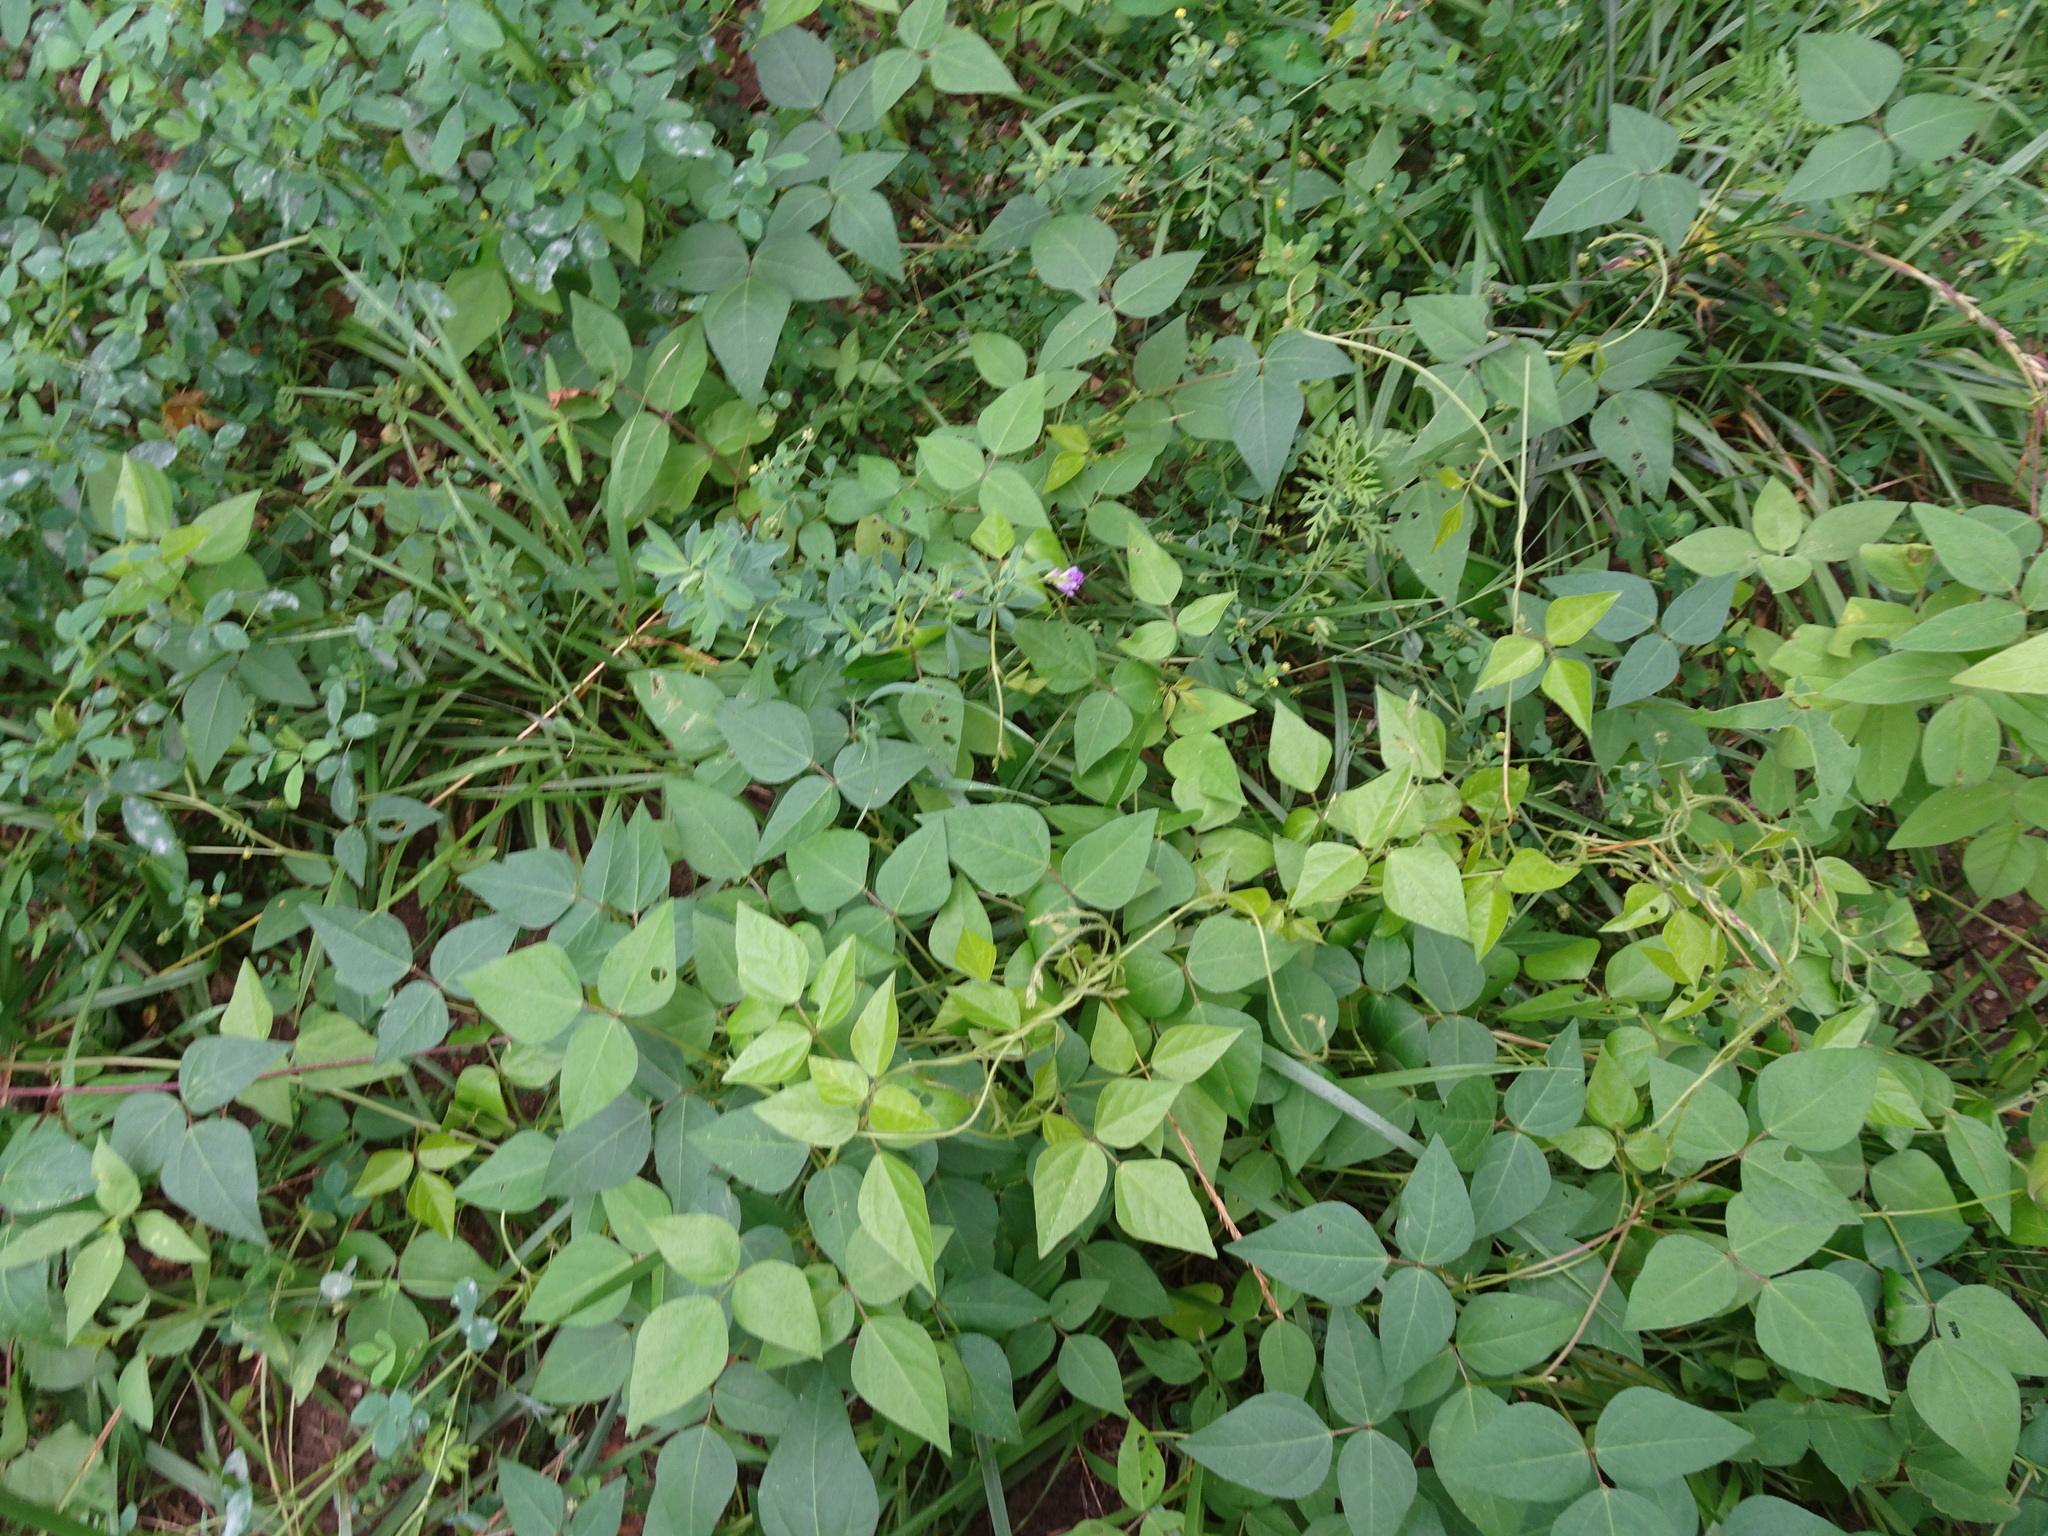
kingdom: Plantae
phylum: Tracheophyta
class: Magnoliopsida
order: Fabales
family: Fabaceae
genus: Amphicarpaea
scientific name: Amphicarpaea bracteata
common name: American hog peanut
